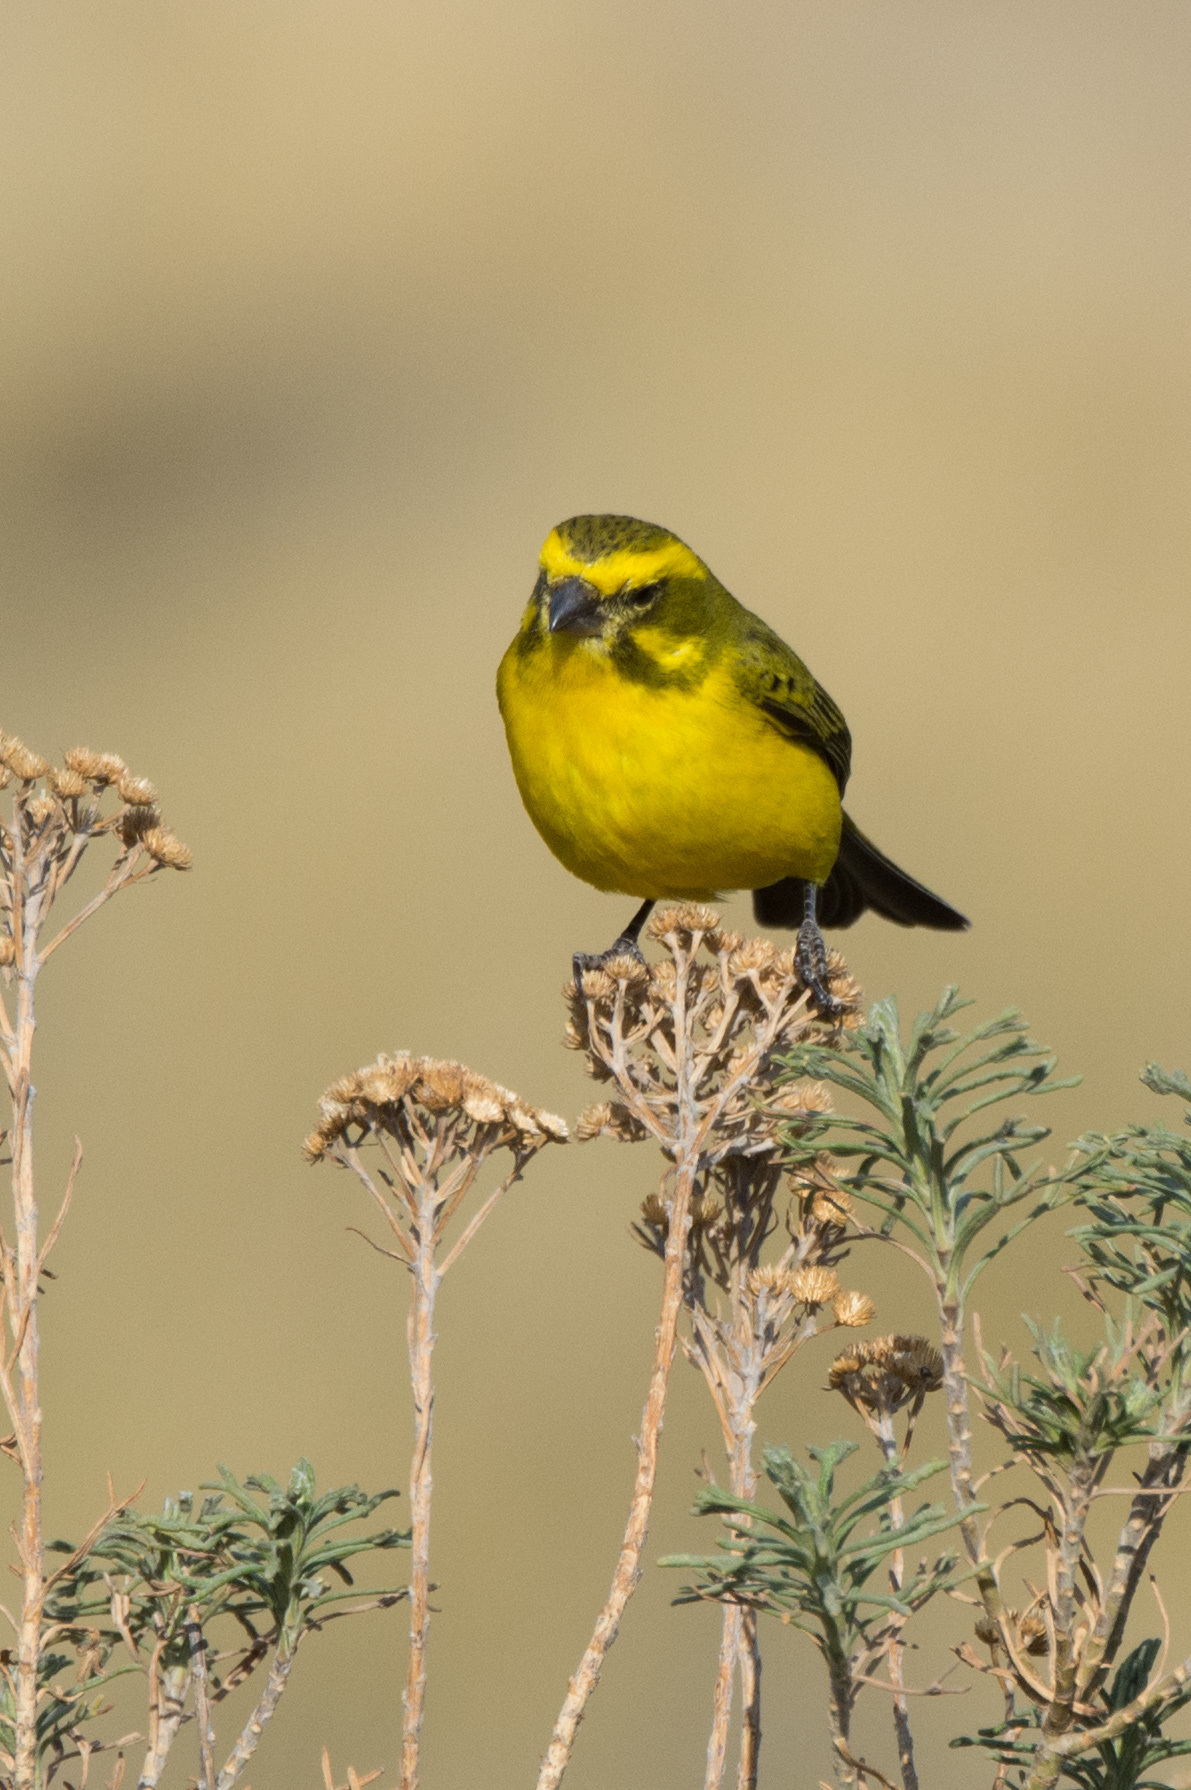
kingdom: Animalia
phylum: Chordata
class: Aves
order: Passeriformes
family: Fringillidae
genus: Crithagra
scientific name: Crithagra flaviventris
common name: Yellow canary
